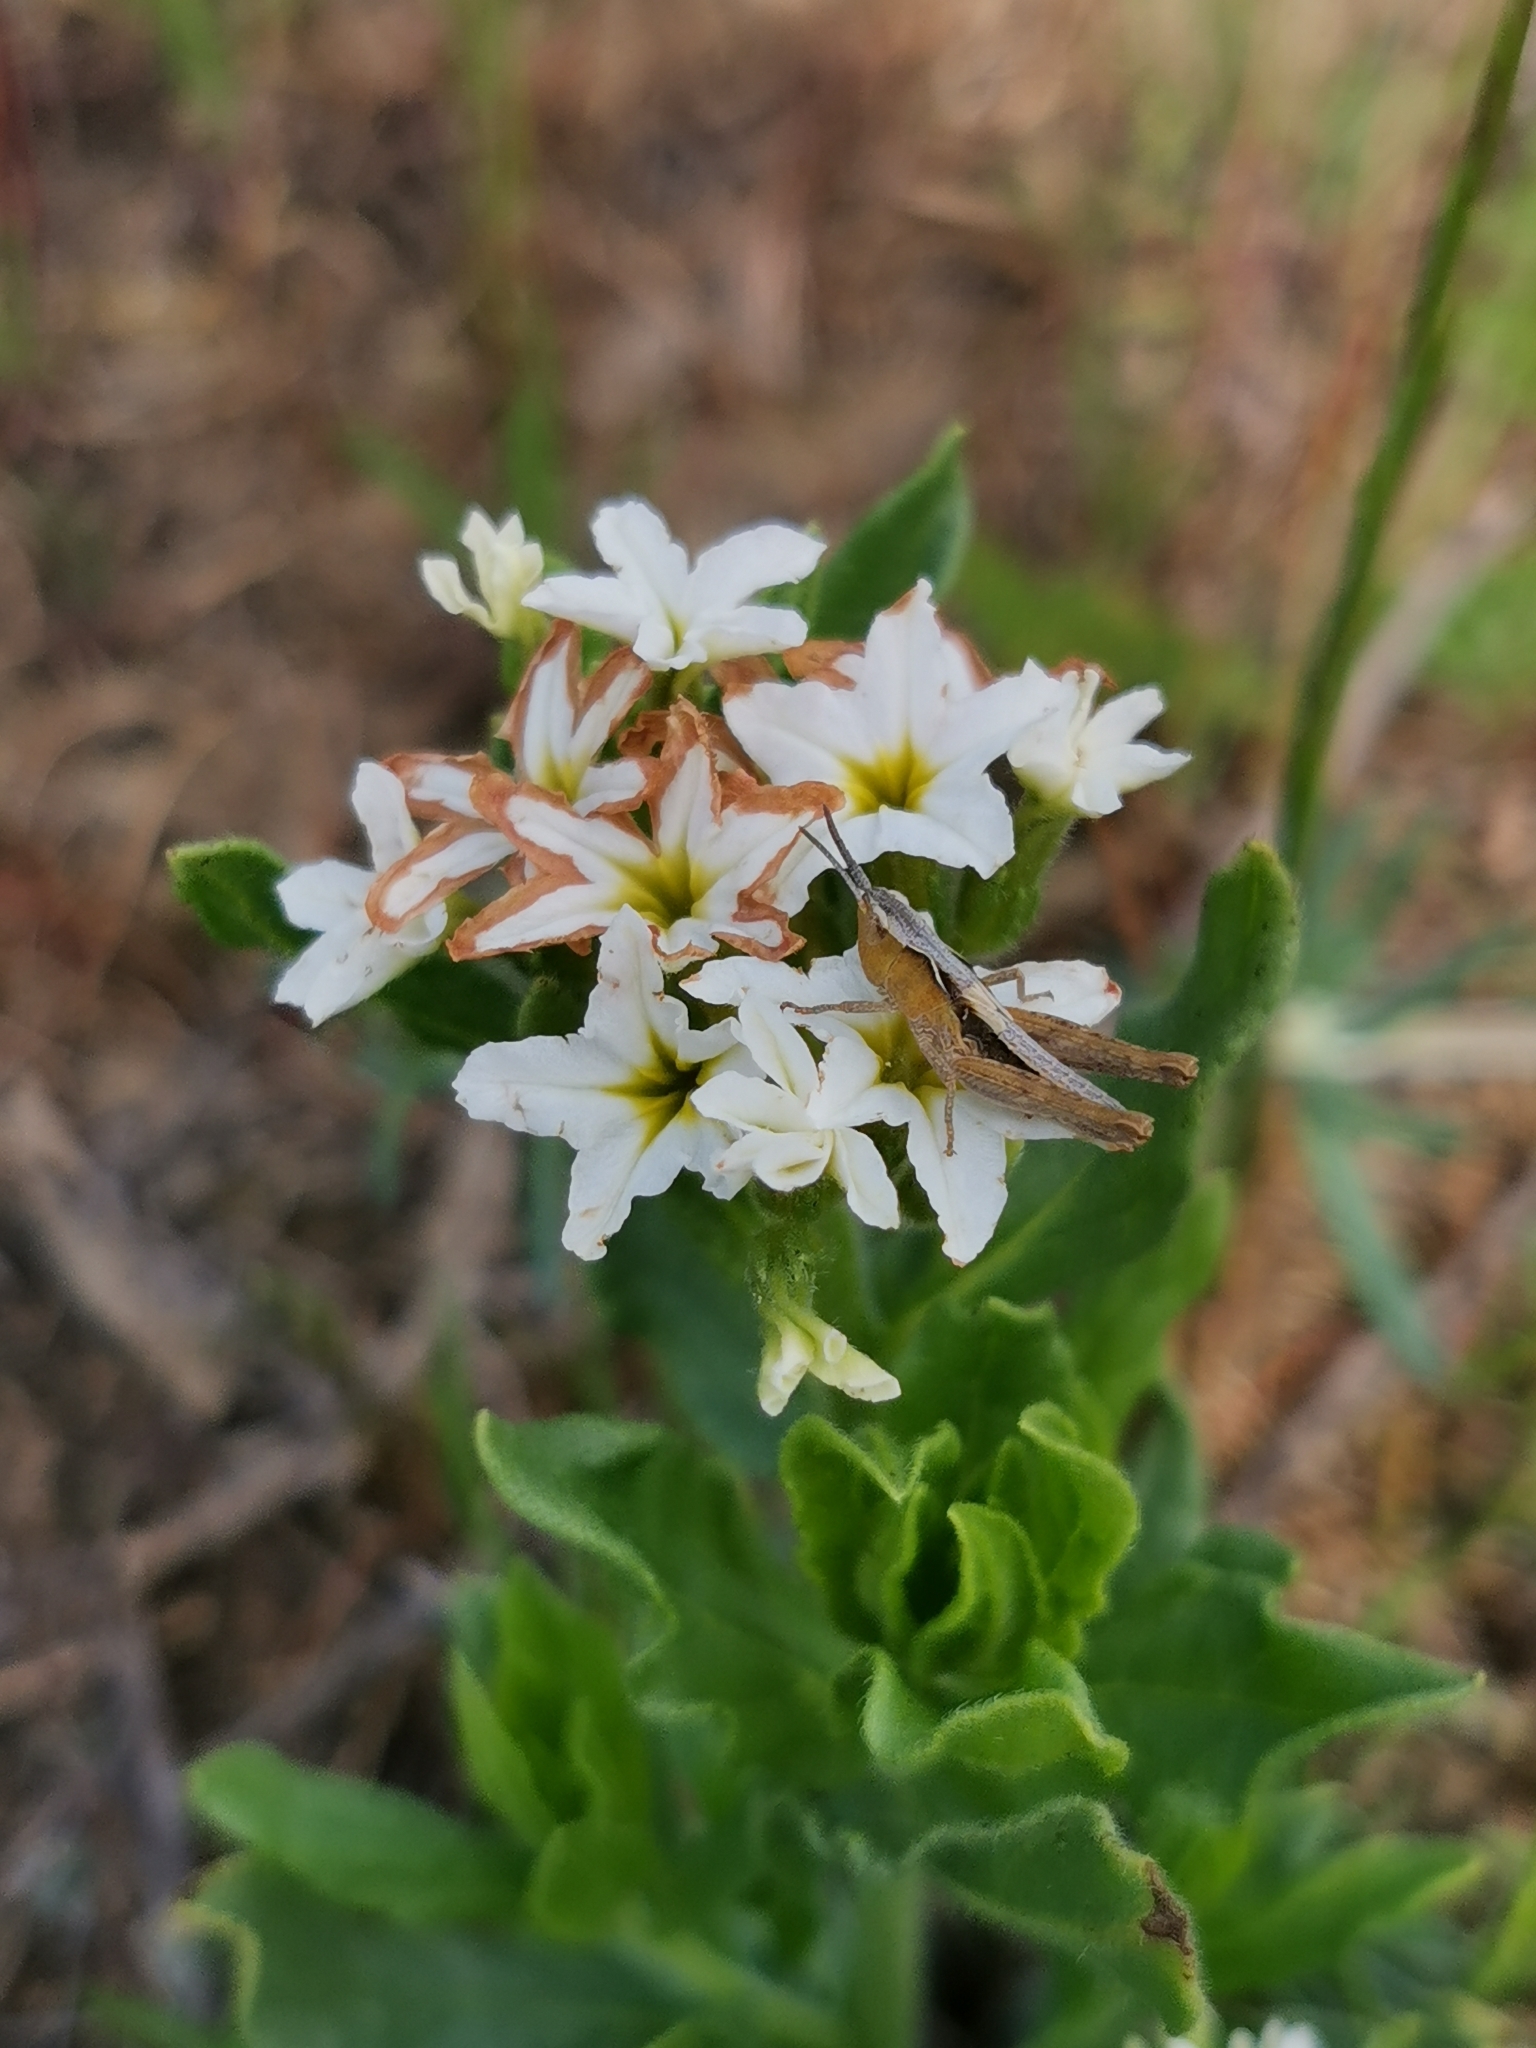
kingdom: Plantae
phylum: Tracheophyta
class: Magnoliopsida
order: Boraginales
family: Heliotropiaceae
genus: Tournefortia
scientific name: Tournefortia sibirica
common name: Siberian sea rosemary
